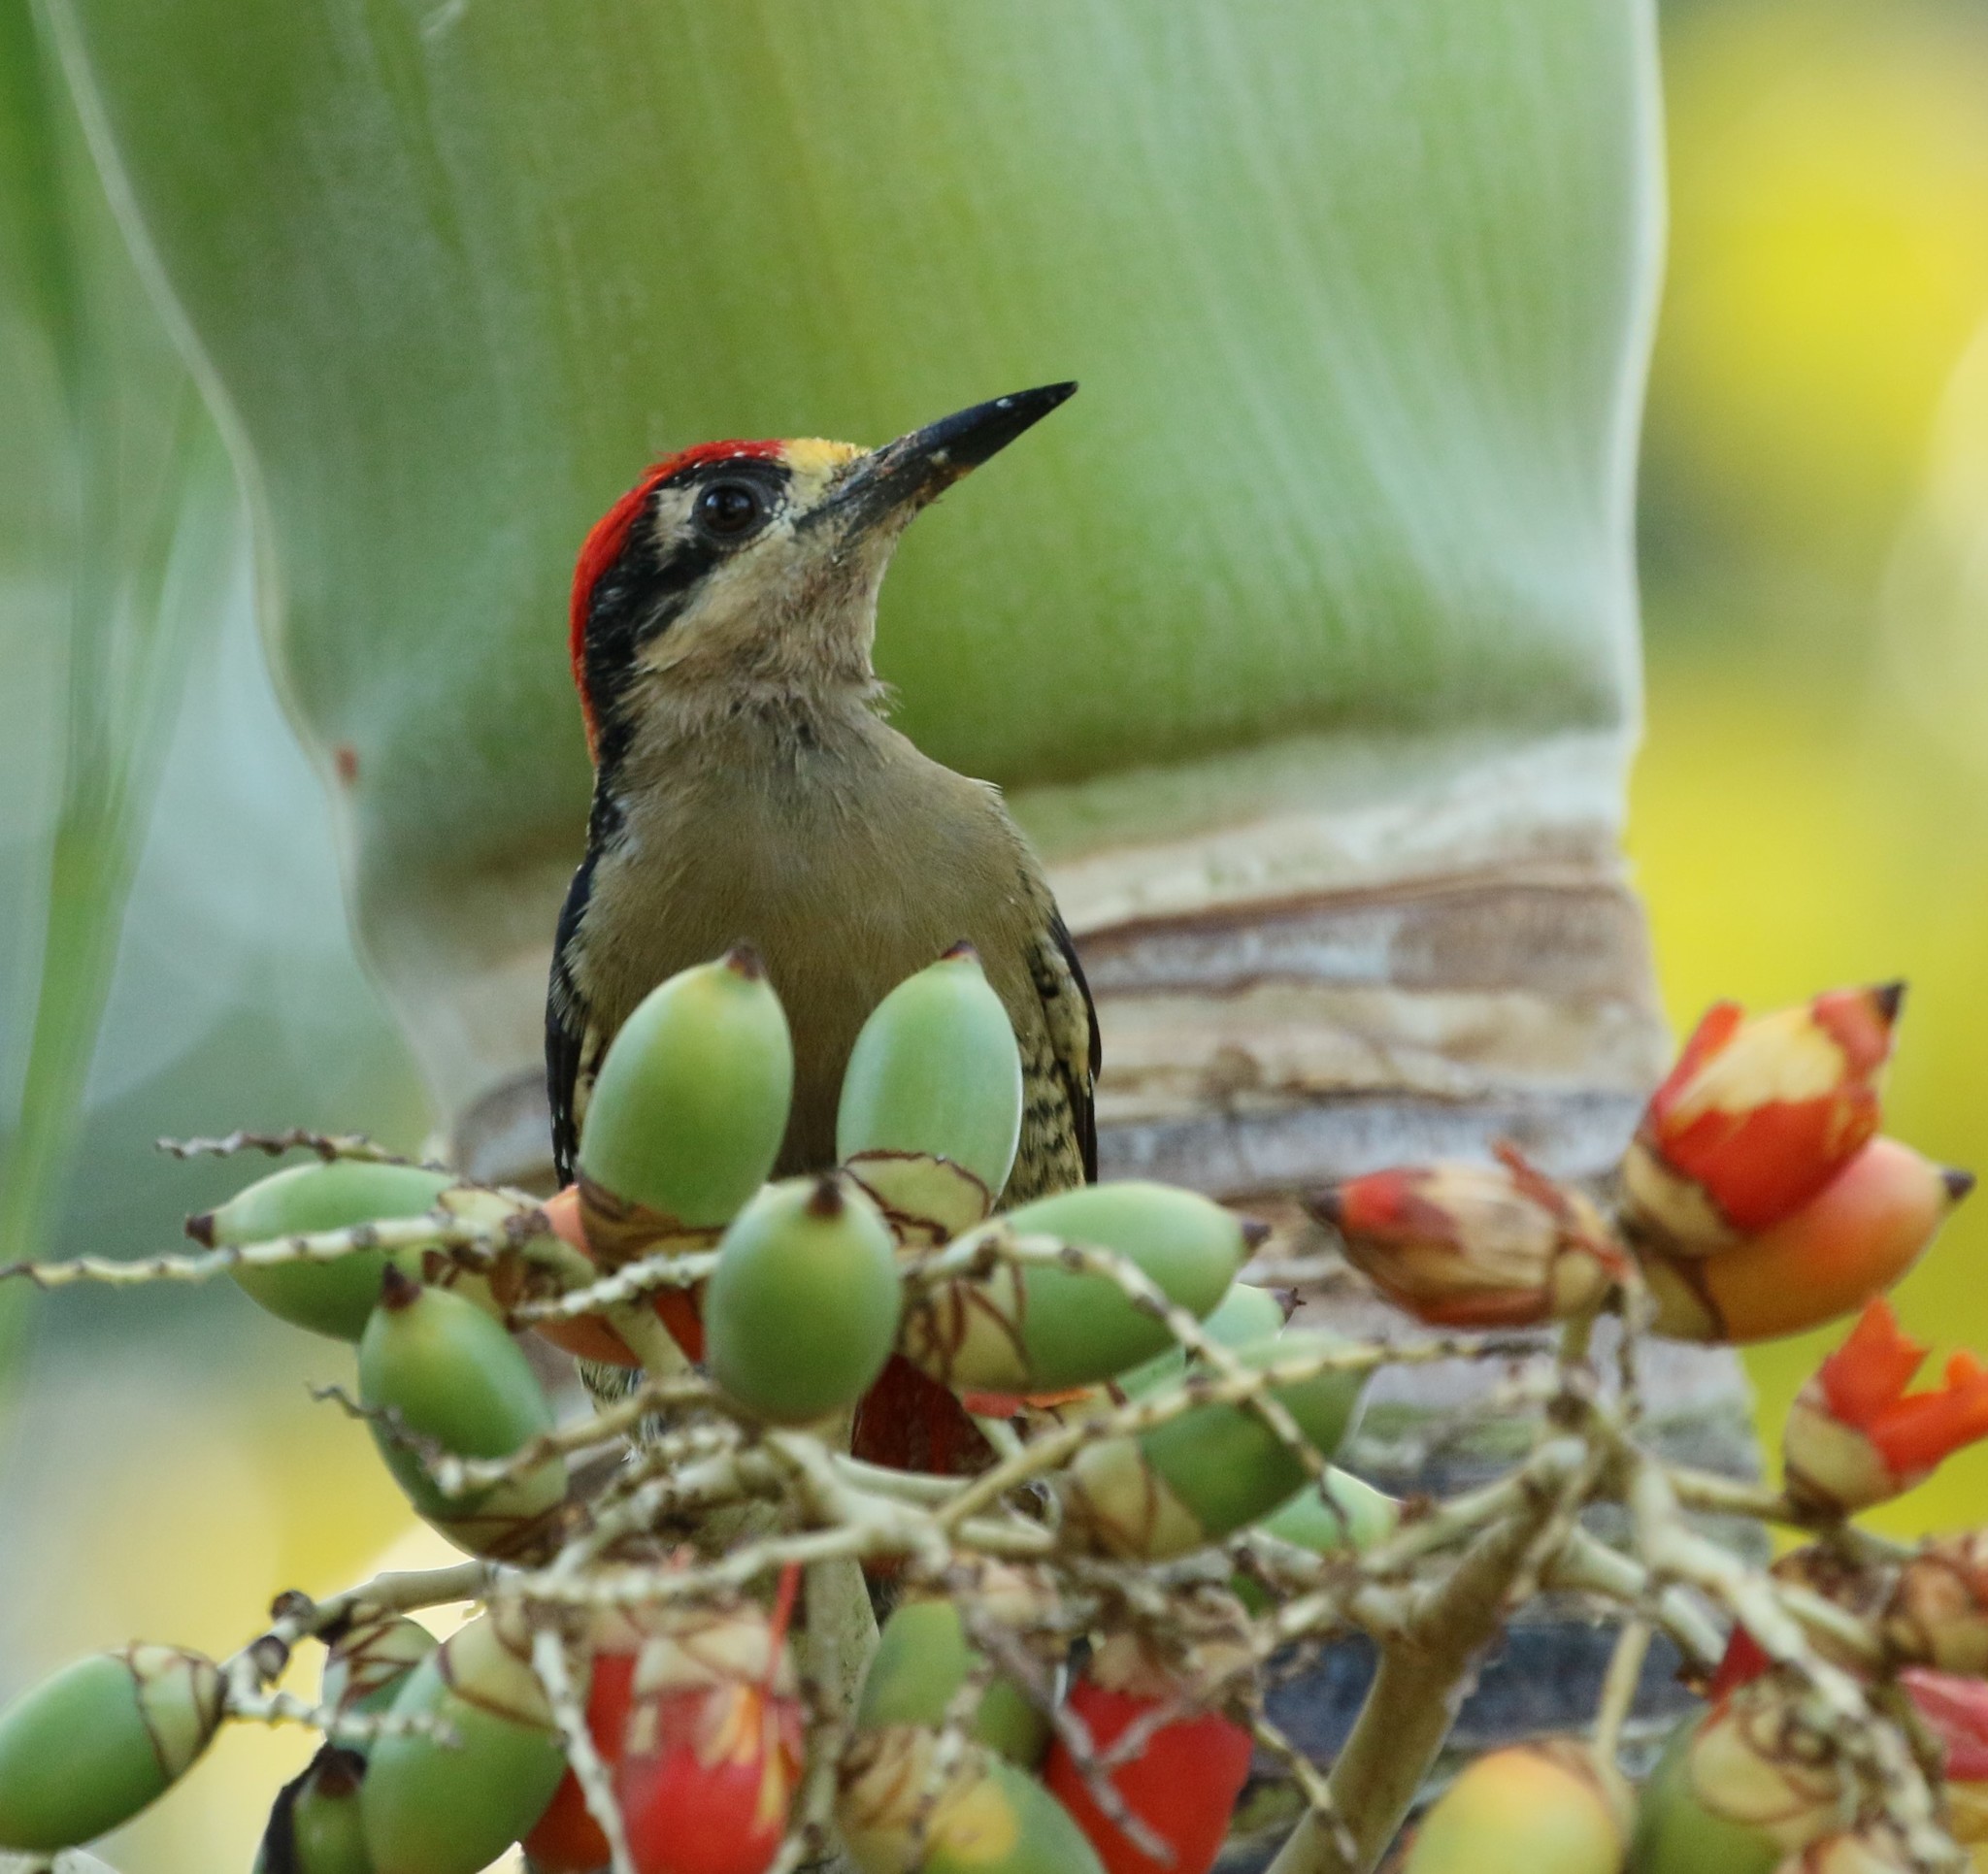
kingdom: Animalia
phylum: Chordata
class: Aves
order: Piciformes
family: Picidae
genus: Melanerpes
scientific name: Melanerpes pucherani
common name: Black-cheeked woodpecker
